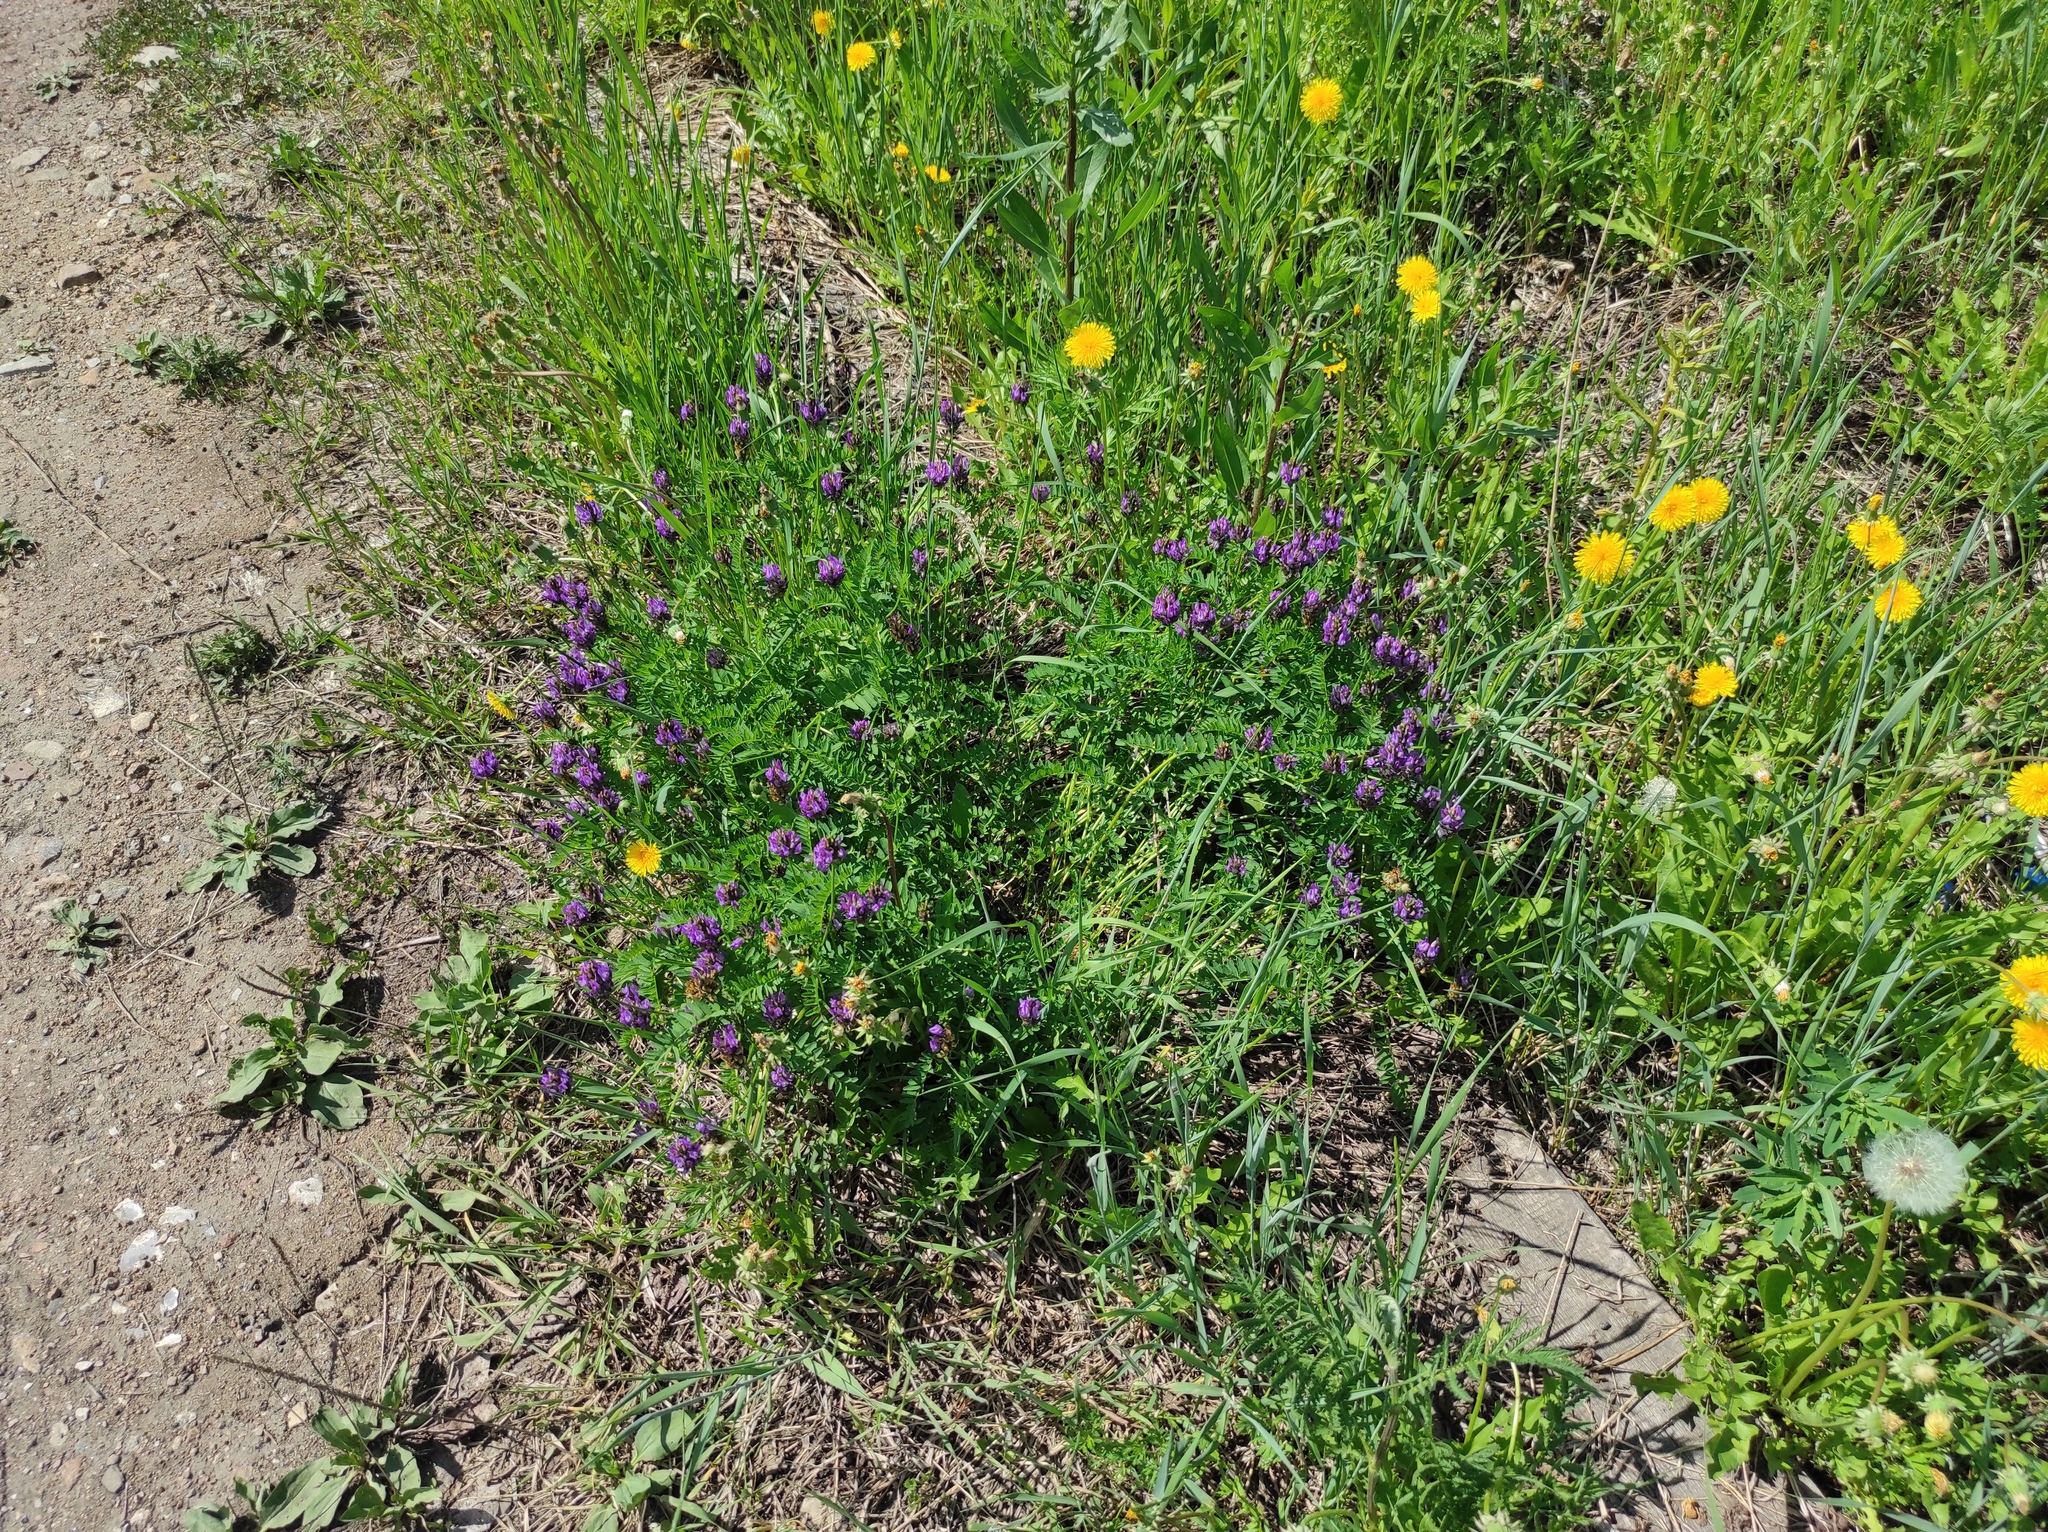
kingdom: Plantae
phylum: Tracheophyta
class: Magnoliopsida
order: Fabales
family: Fabaceae
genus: Astragalus
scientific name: Astragalus danicus
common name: Purple milk-vetch
